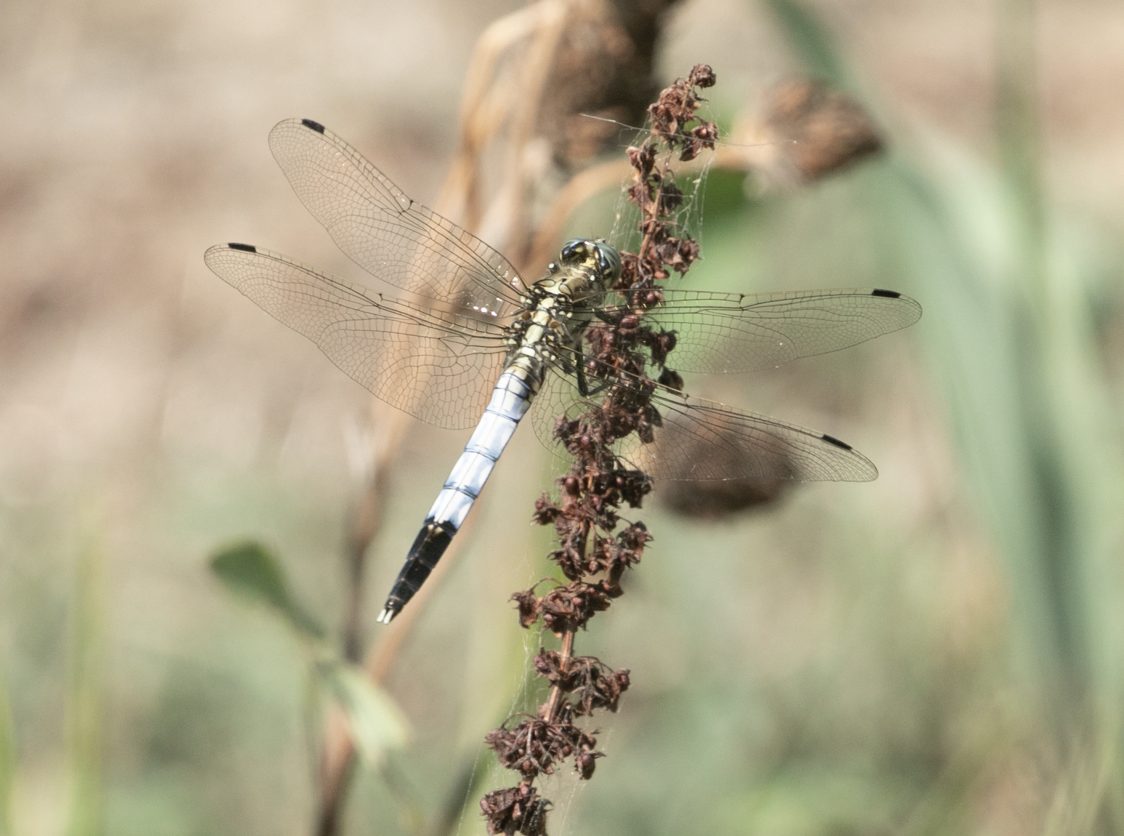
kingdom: Animalia
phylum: Arthropoda
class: Insecta
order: Odonata
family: Libellulidae
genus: Orthetrum
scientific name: Orthetrum albistylum
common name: White-tailed skimmer
